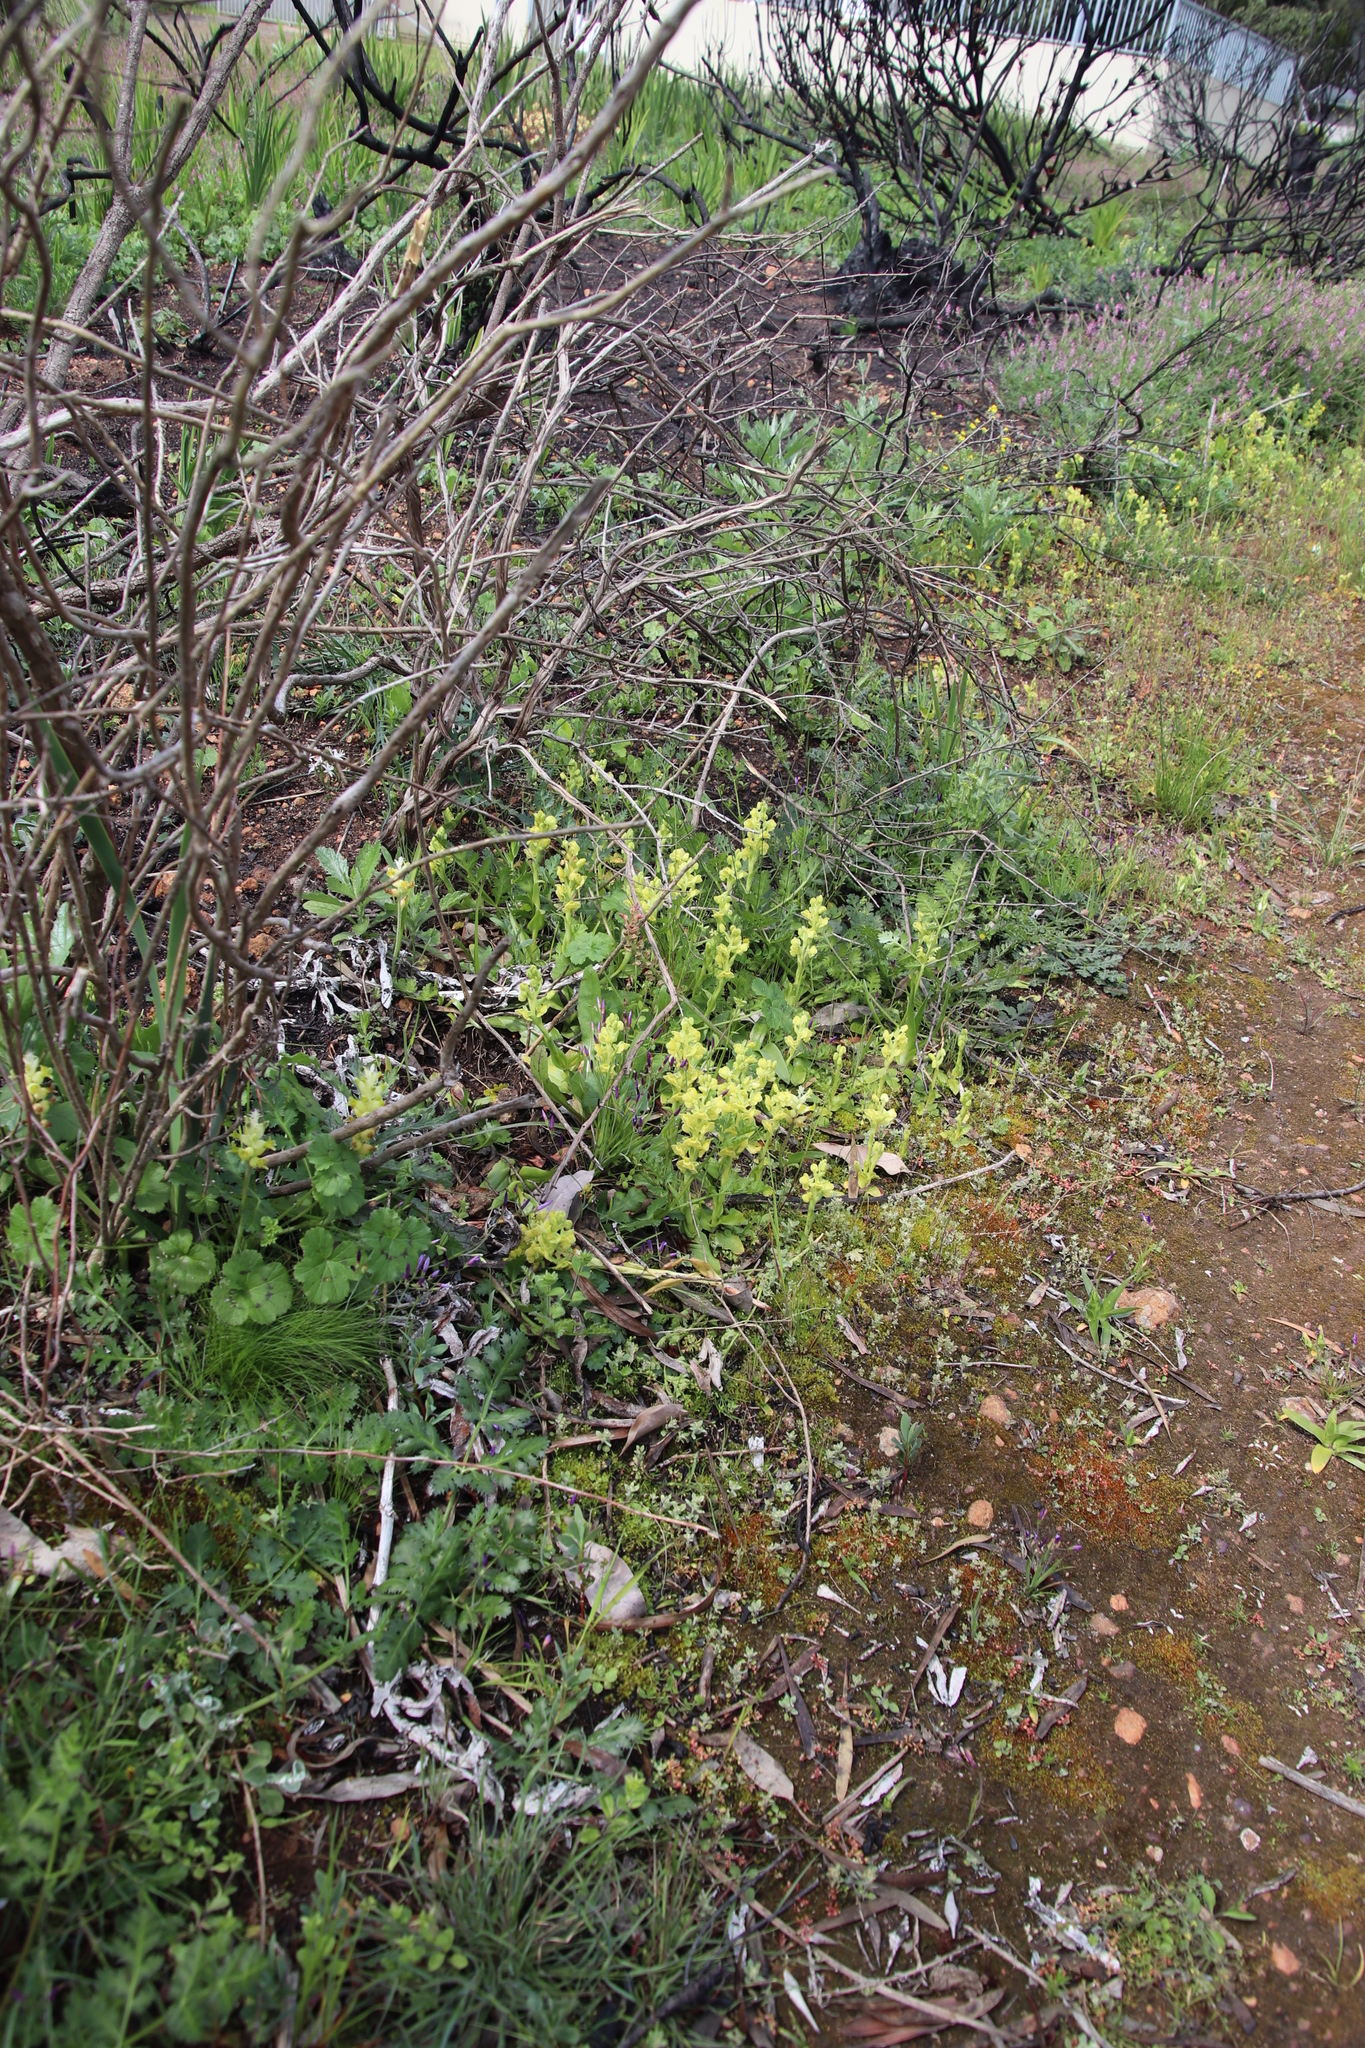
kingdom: Plantae
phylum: Tracheophyta
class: Liliopsida
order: Asparagales
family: Orchidaceae
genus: Pterygodium
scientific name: Pterygodium caffrum
